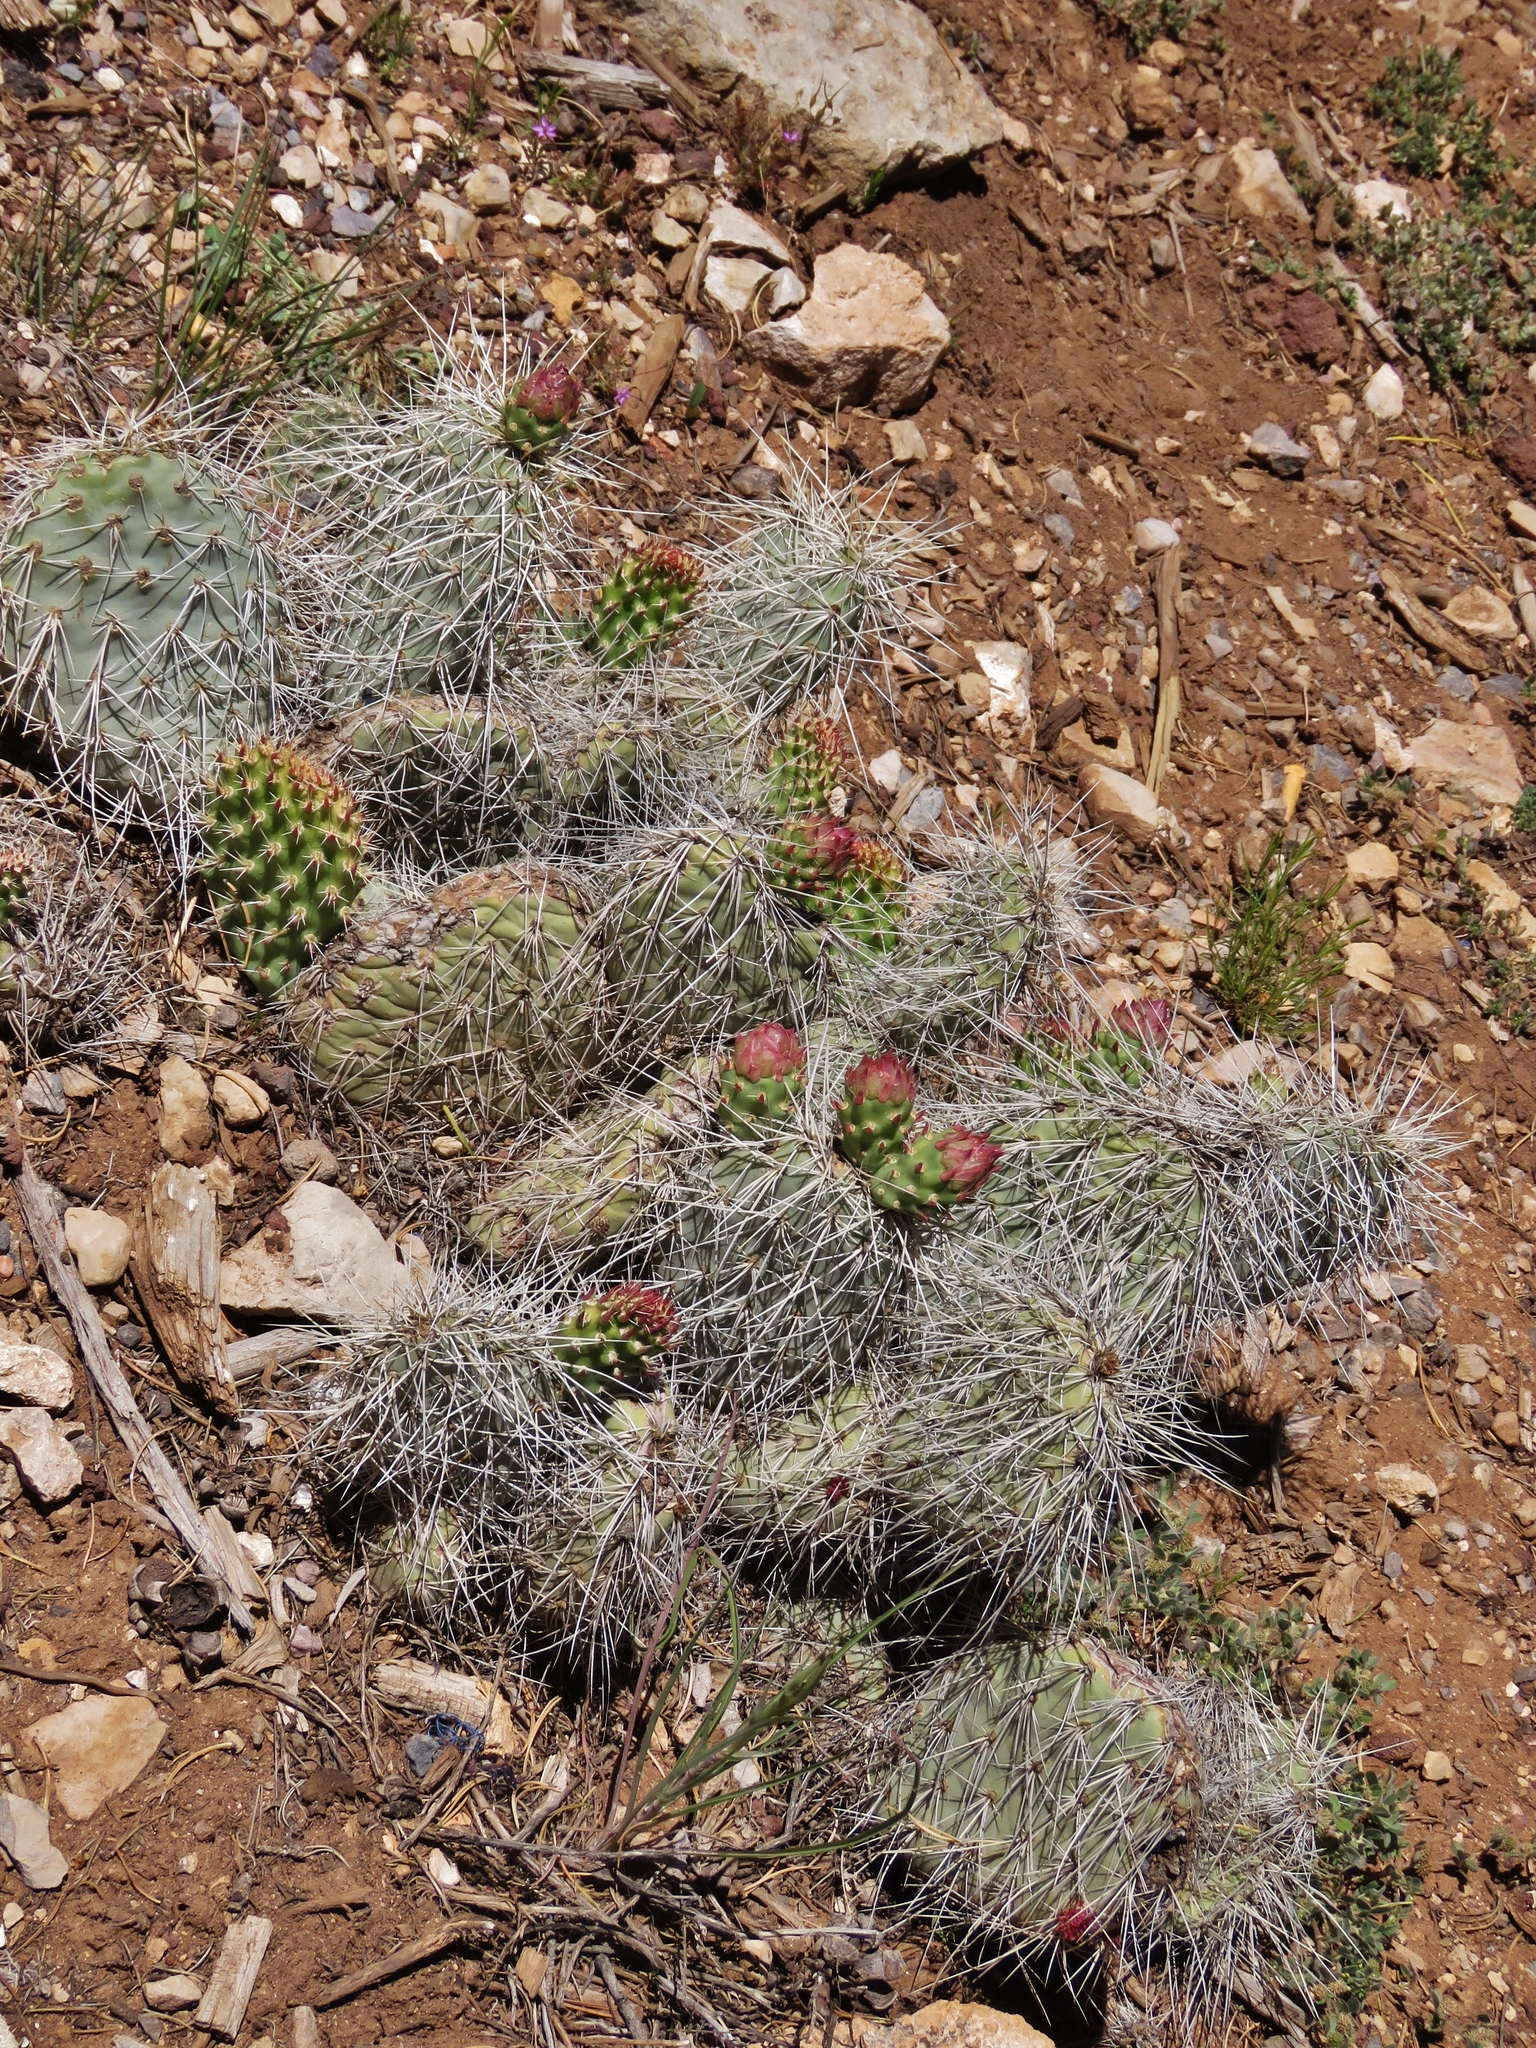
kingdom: Plantae
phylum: Tracheophyta
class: Magnoliopsida
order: Caryophyllales
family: Cactaceae
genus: Opuntia
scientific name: Opuntia polyacantha
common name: Plains prickly-pear
